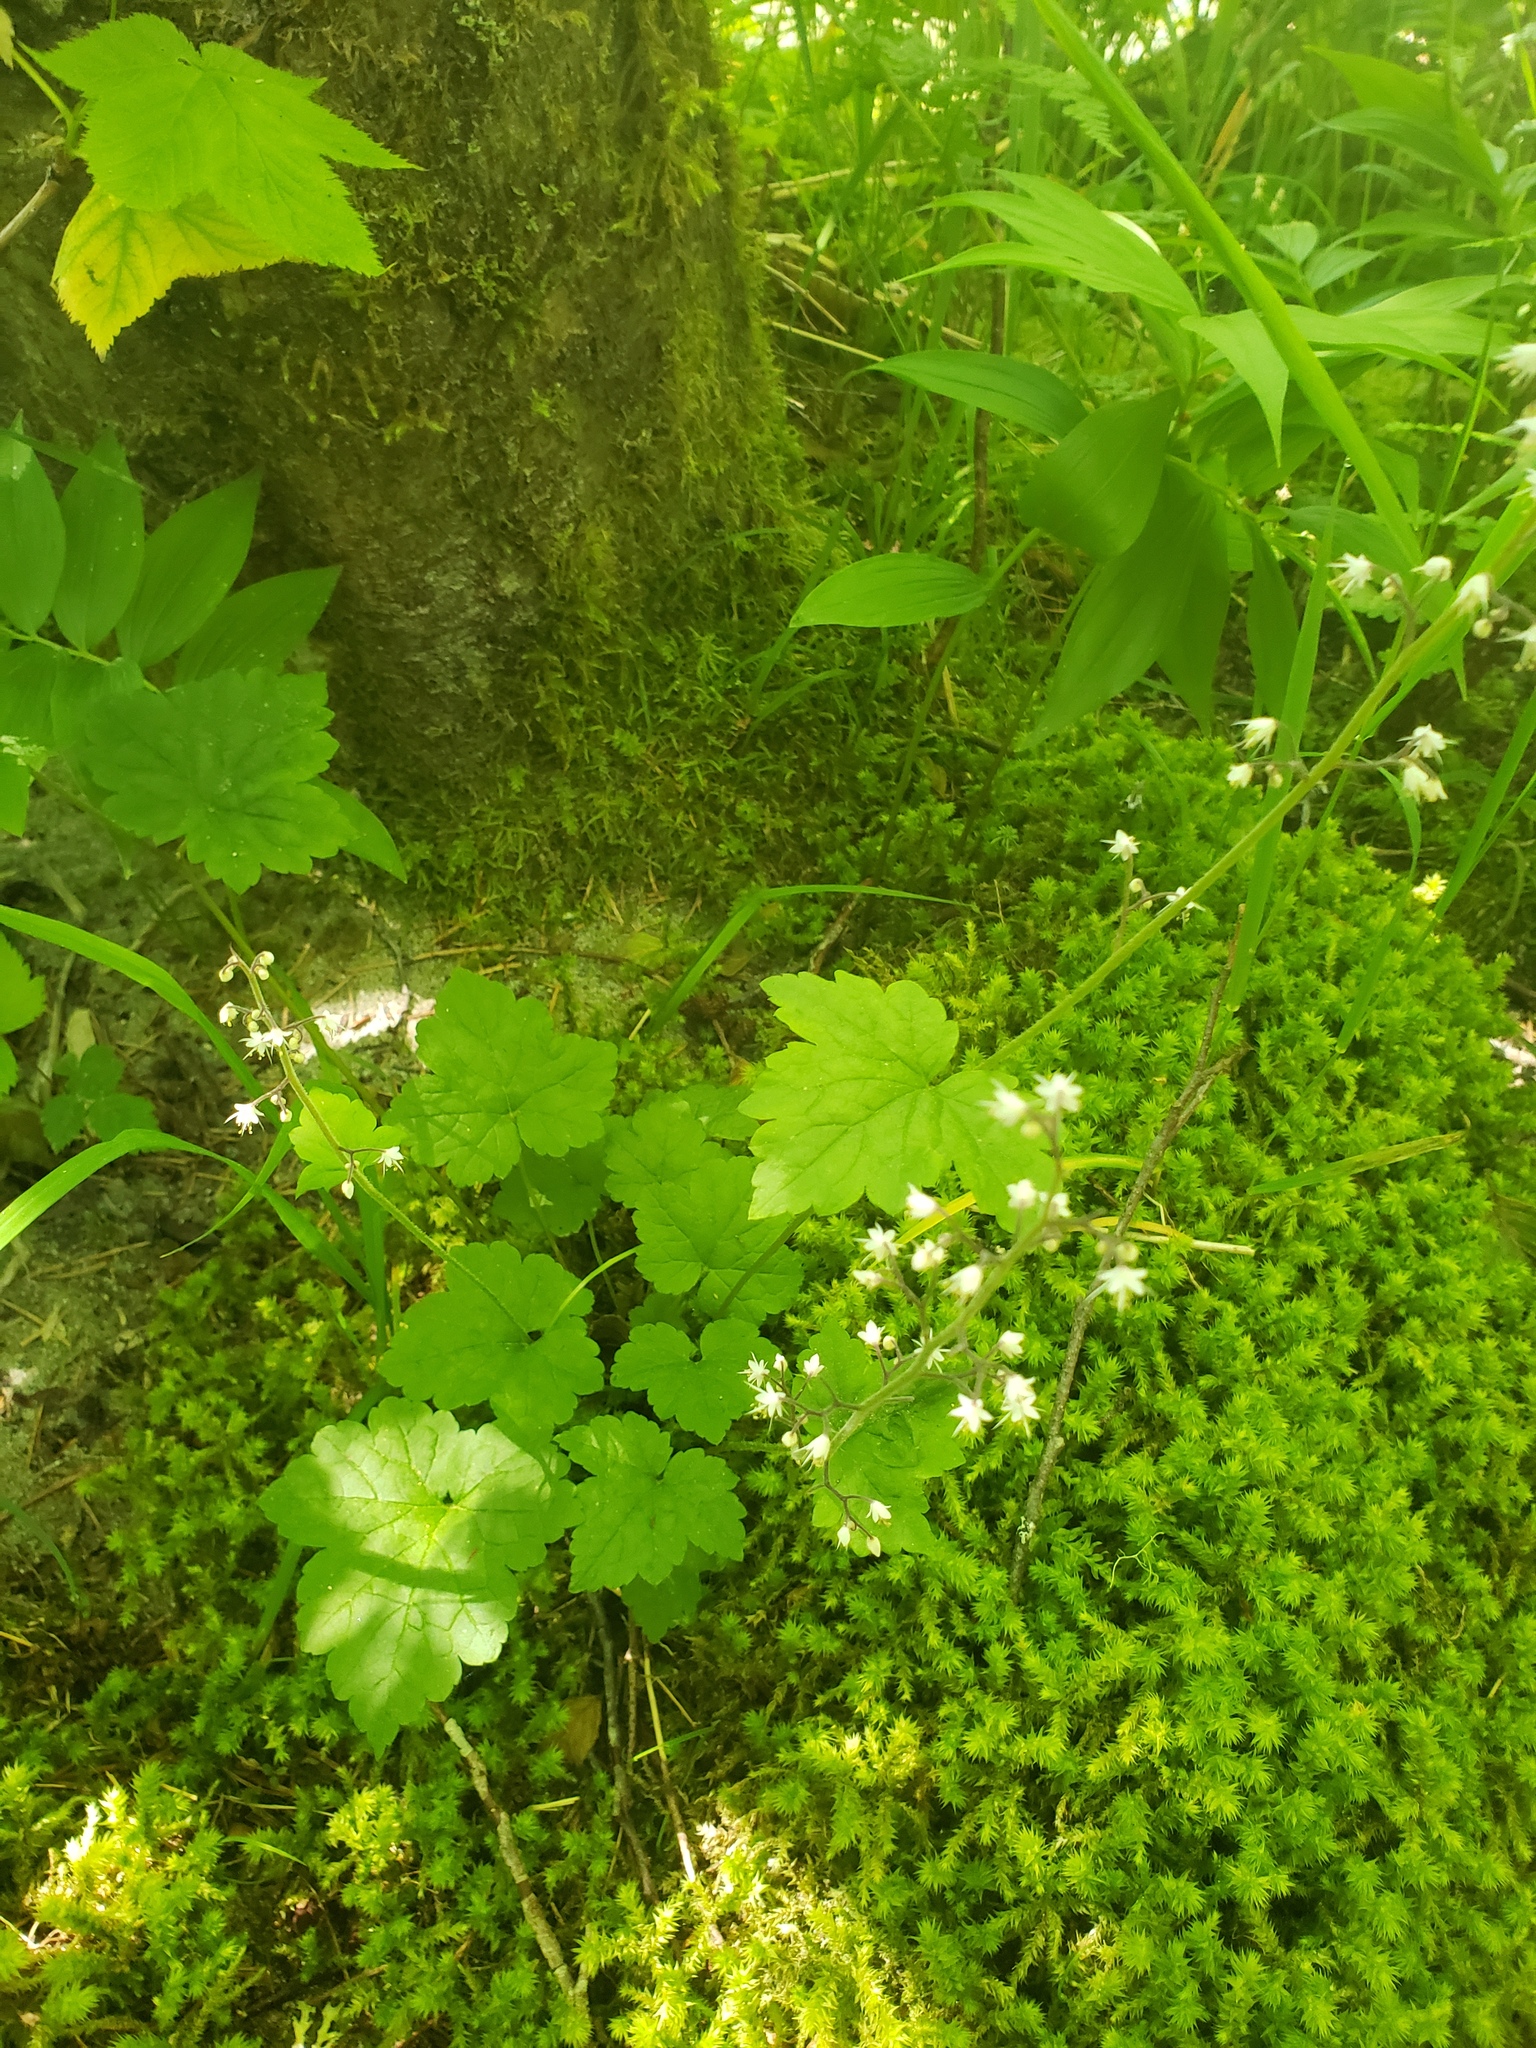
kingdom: Plantae
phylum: Tracheophyta
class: Magnoliopsida
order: Saxifragales
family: Saxifragaceae
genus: Tiarella
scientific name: Tiarella trifoliata
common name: Sugar-scoop
